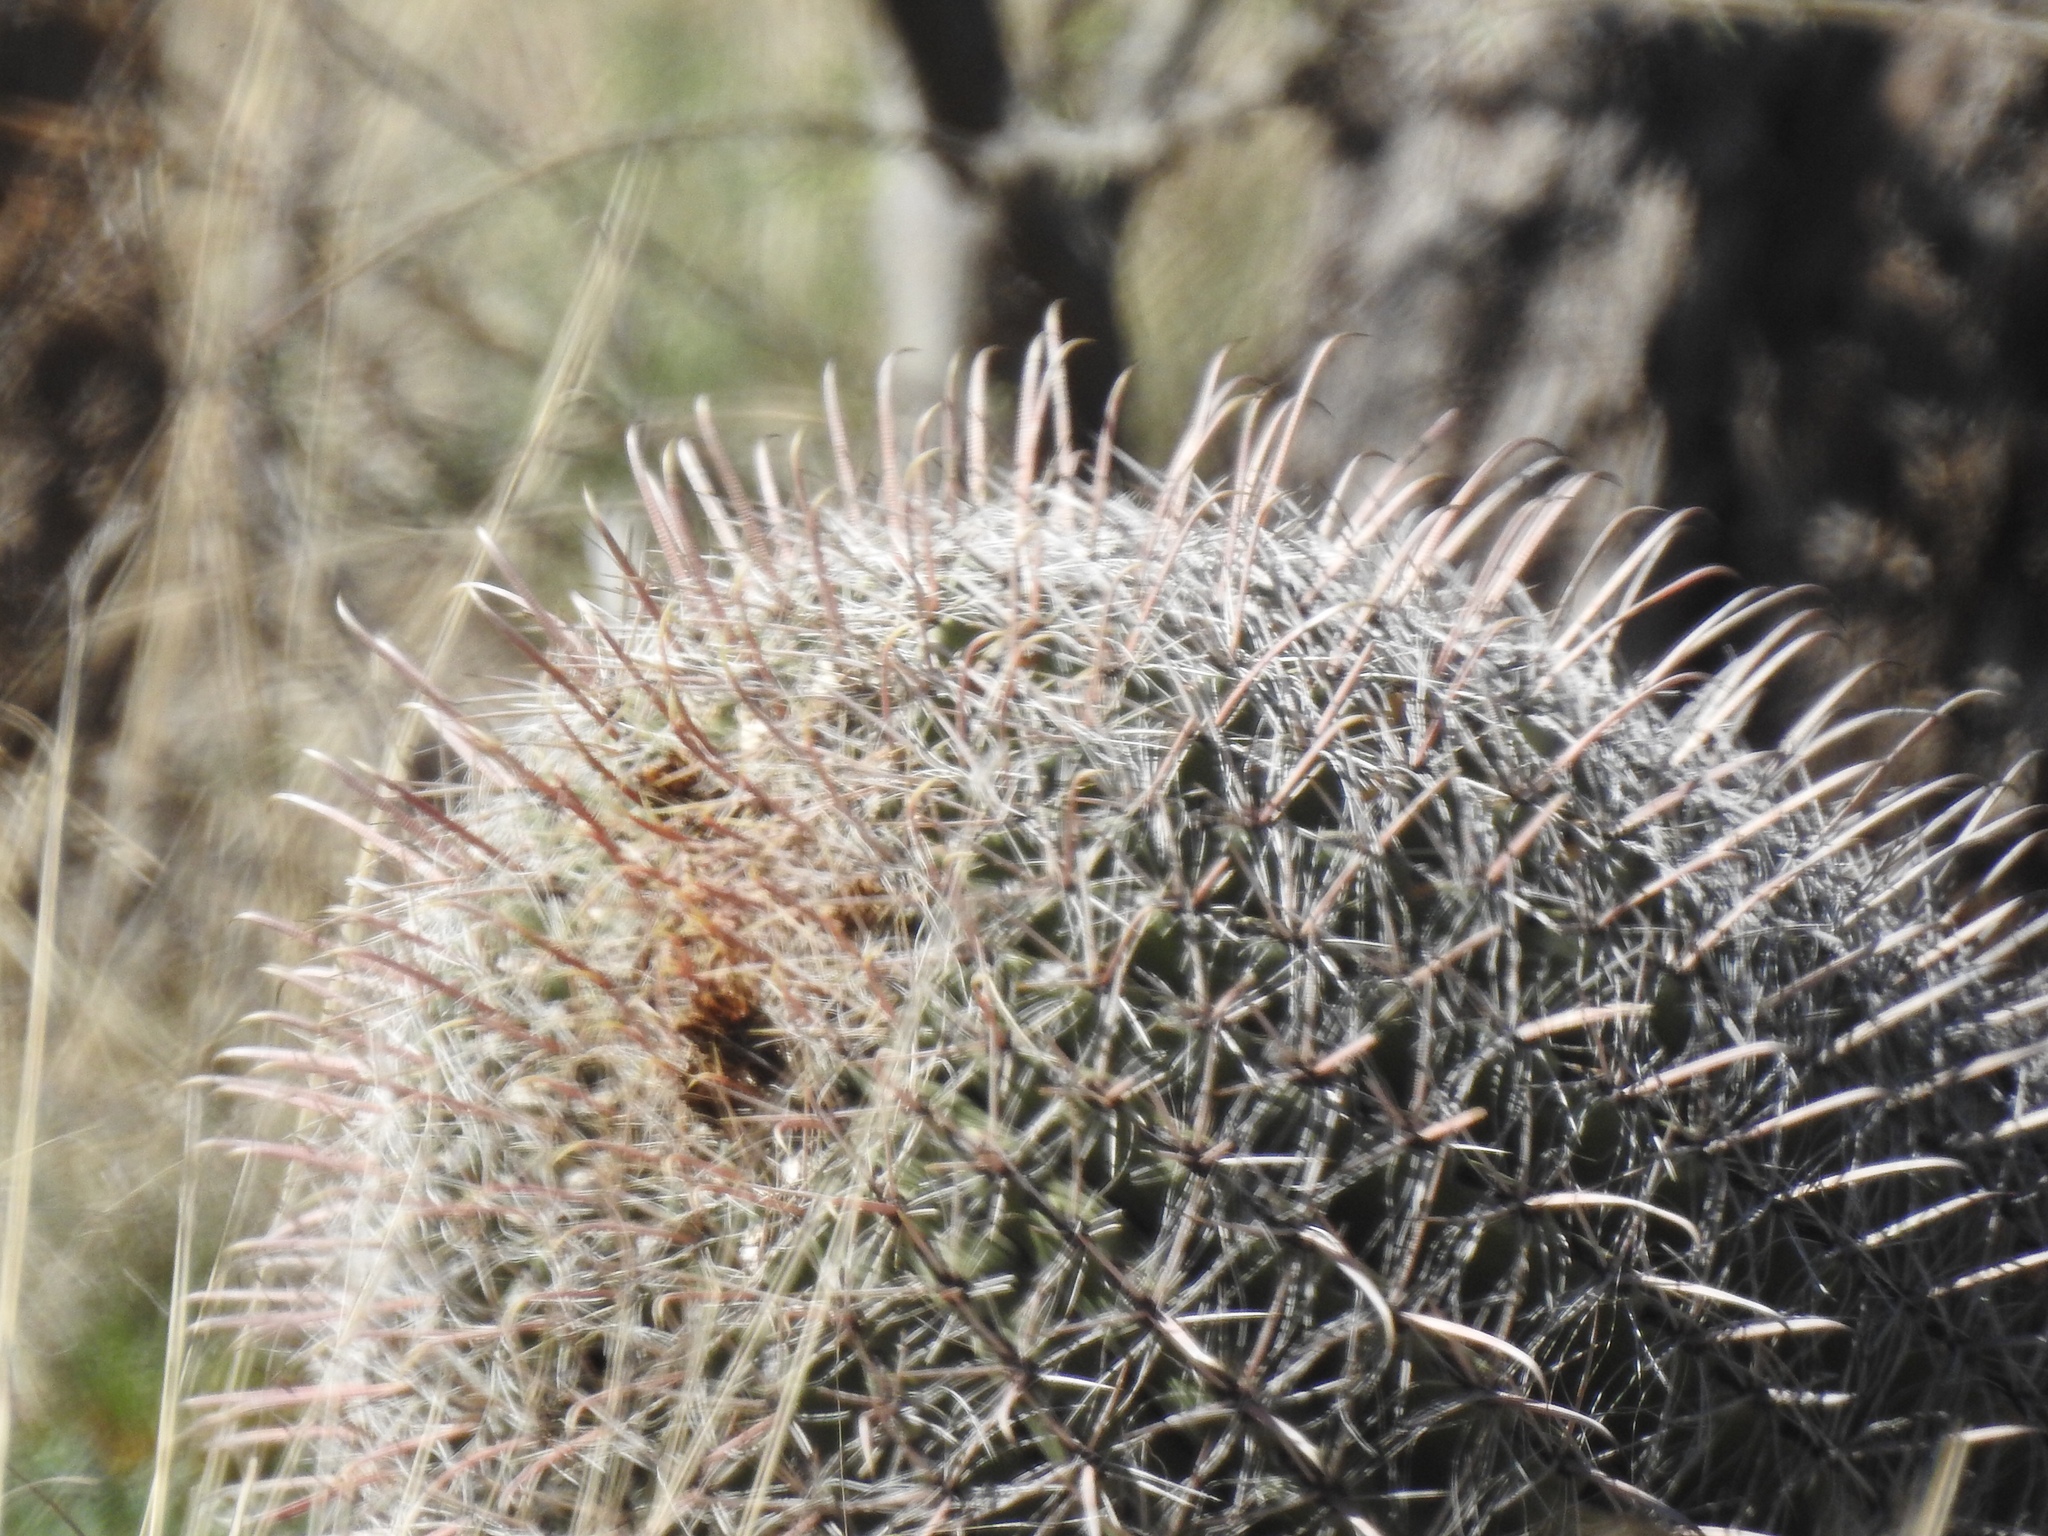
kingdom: Plantae
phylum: Tracheophyta
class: Magnoliopsida
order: Caryophyllales
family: Cactaceae
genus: Ferocactus
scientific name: Ferocactus wislizeni
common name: Candy barrel cactus
